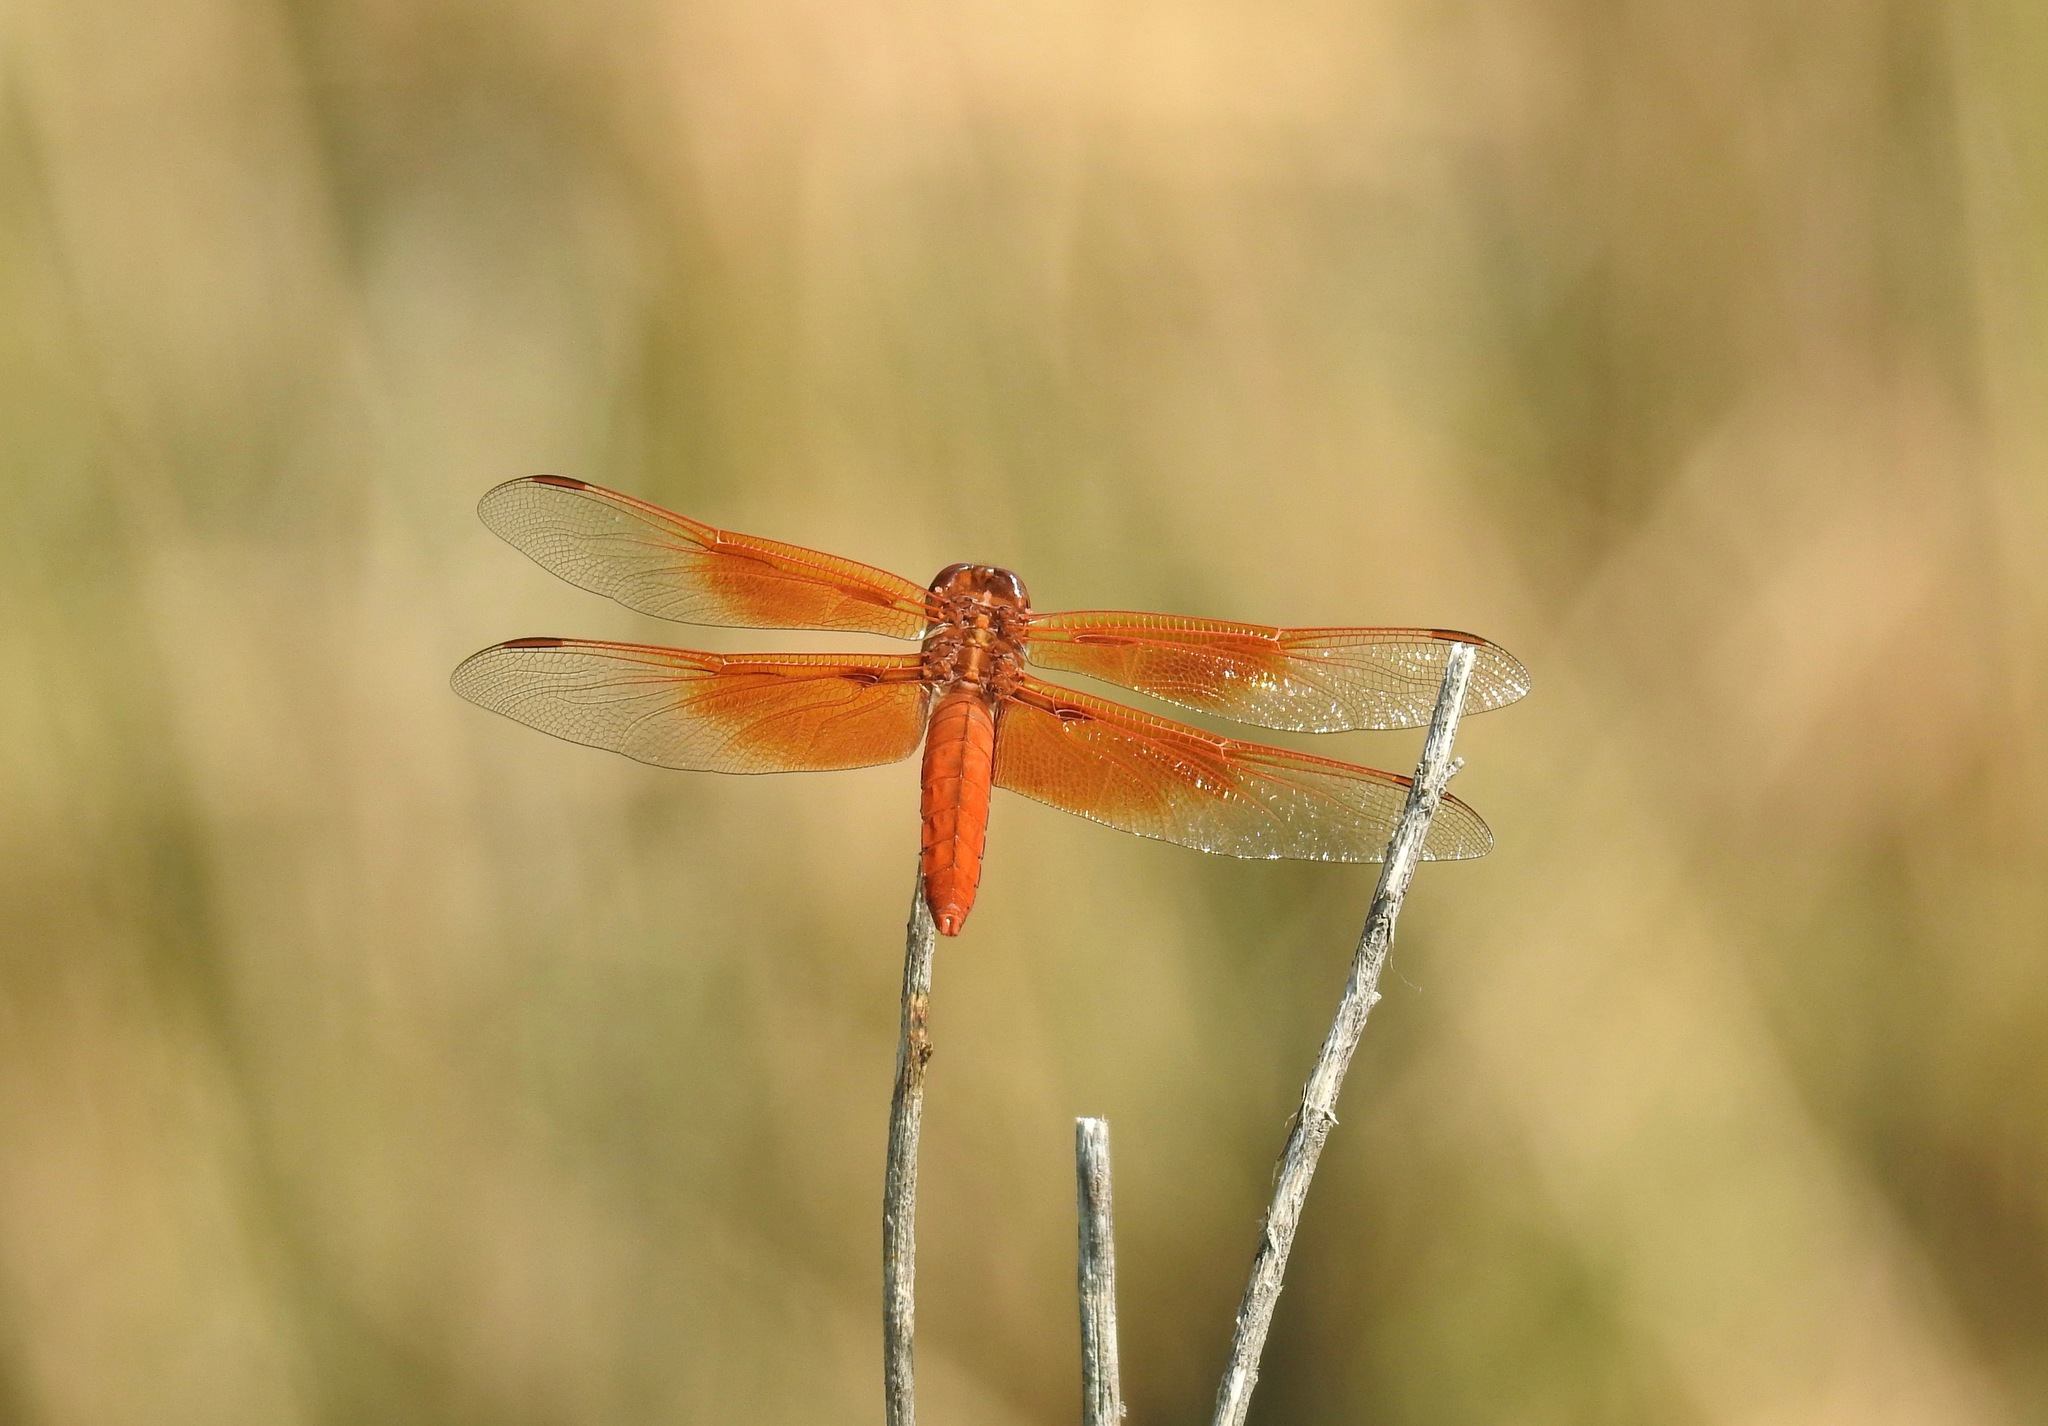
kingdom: Animalia
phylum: Arthropoda
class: Insecta
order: Odonata
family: Libellulidae
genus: Libellula
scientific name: Libellula saturata
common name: Flame skimmer
